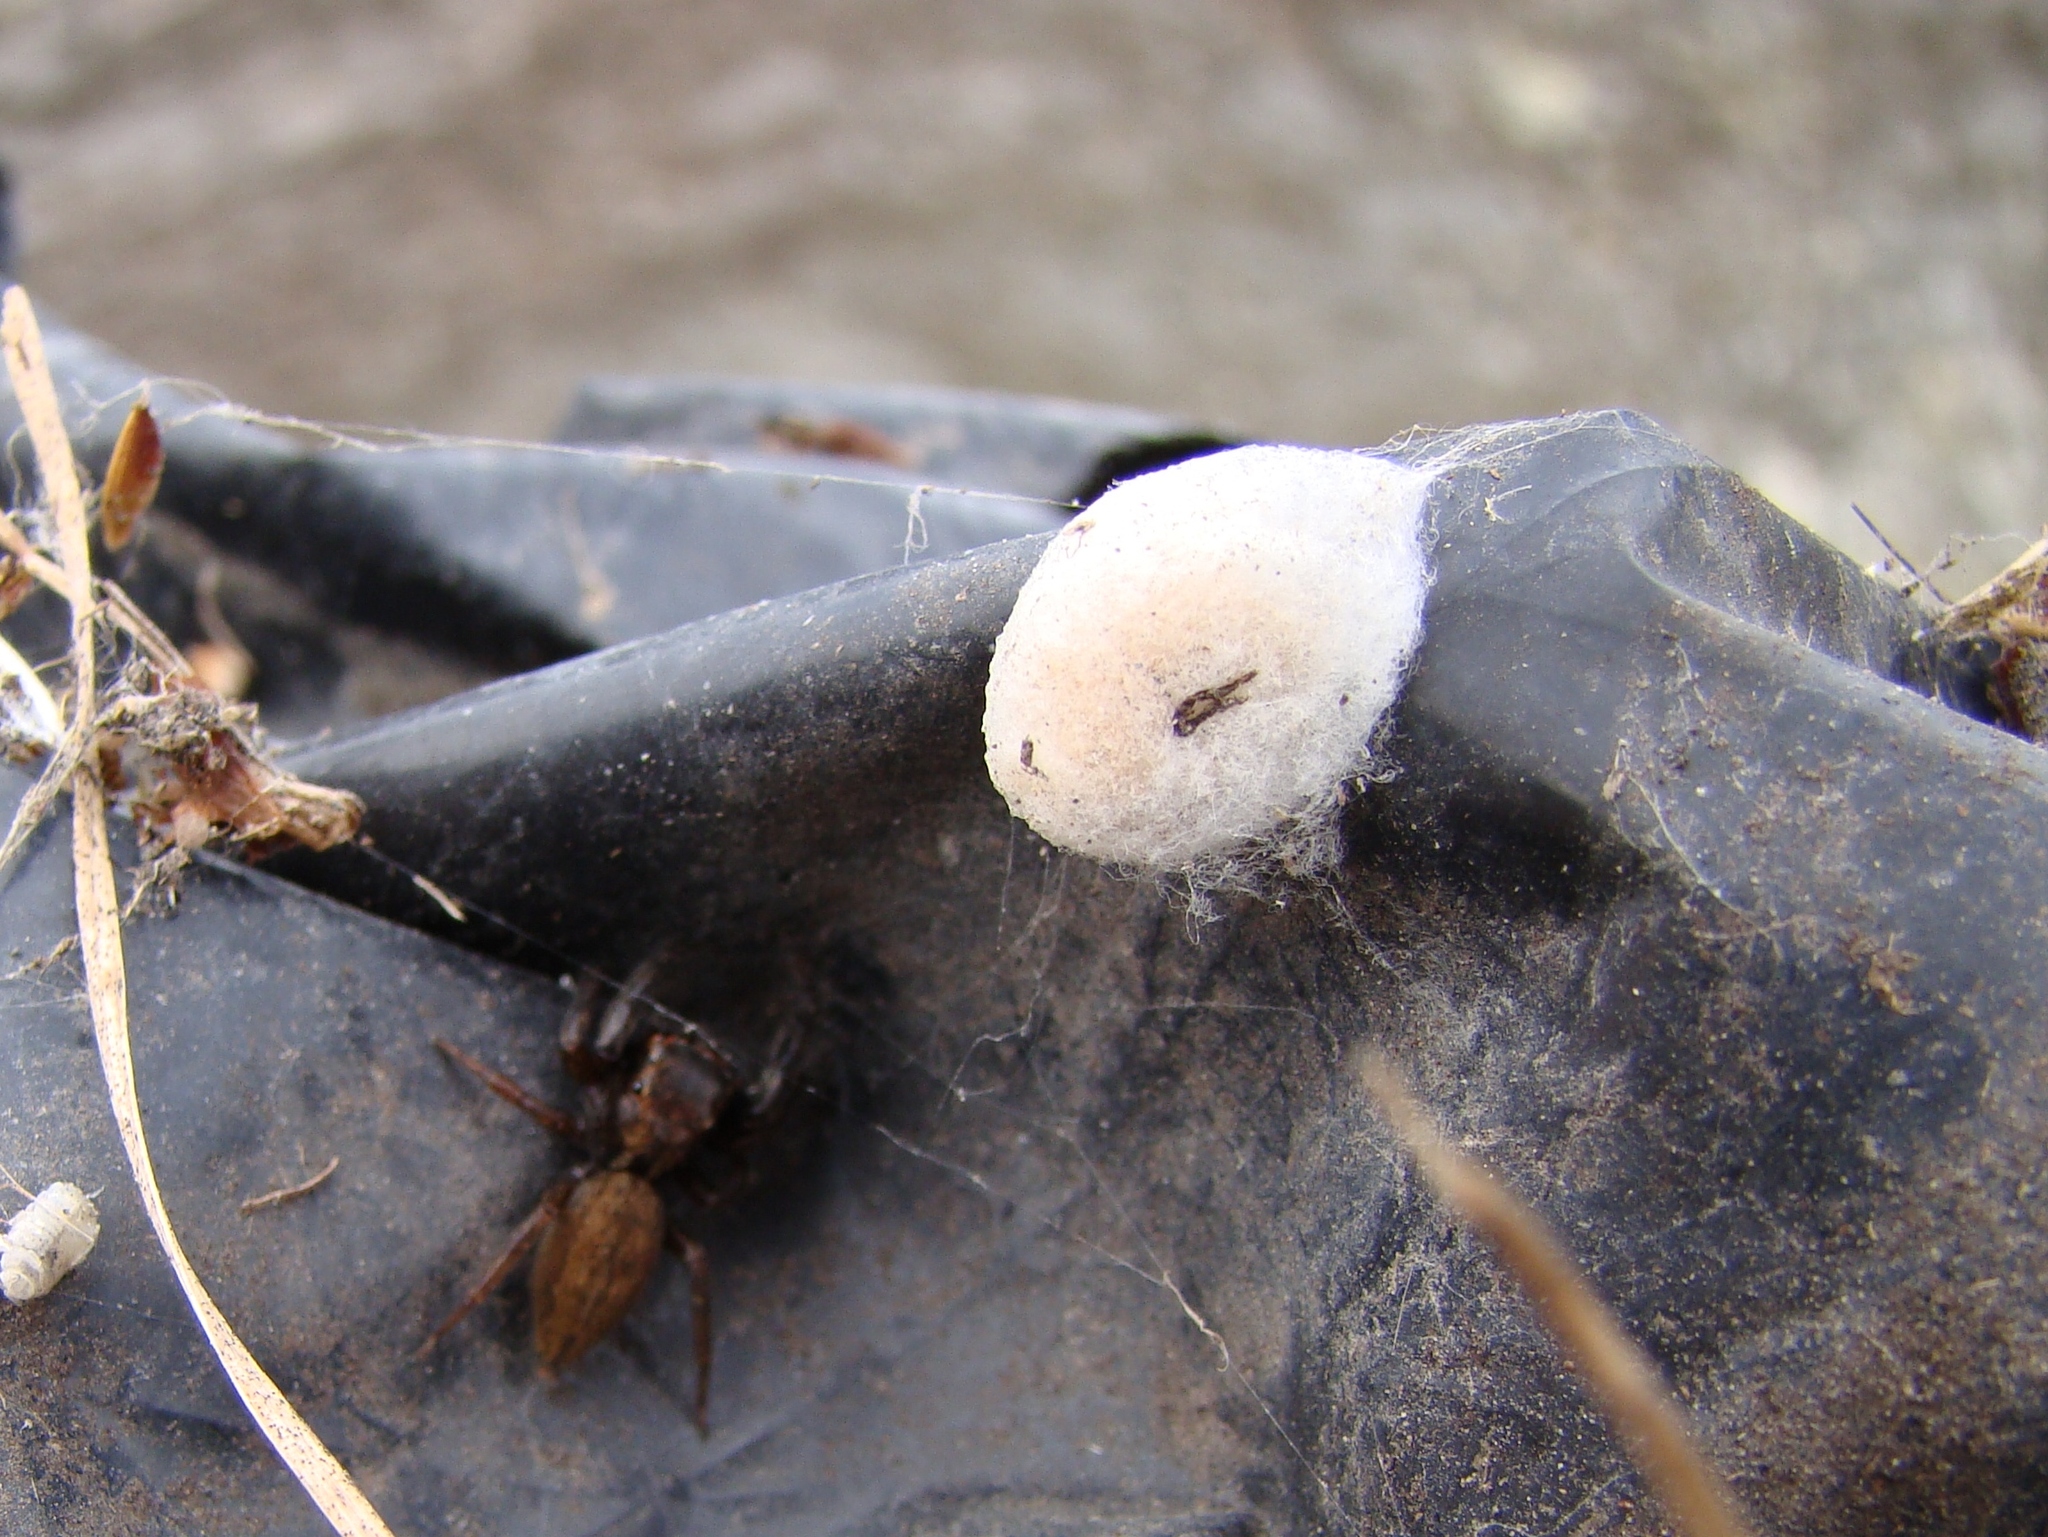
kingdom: Animalia
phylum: Arthropoda
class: Arachnida
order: Araneae
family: Salticidae
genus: Trite
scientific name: Trite auricoma
